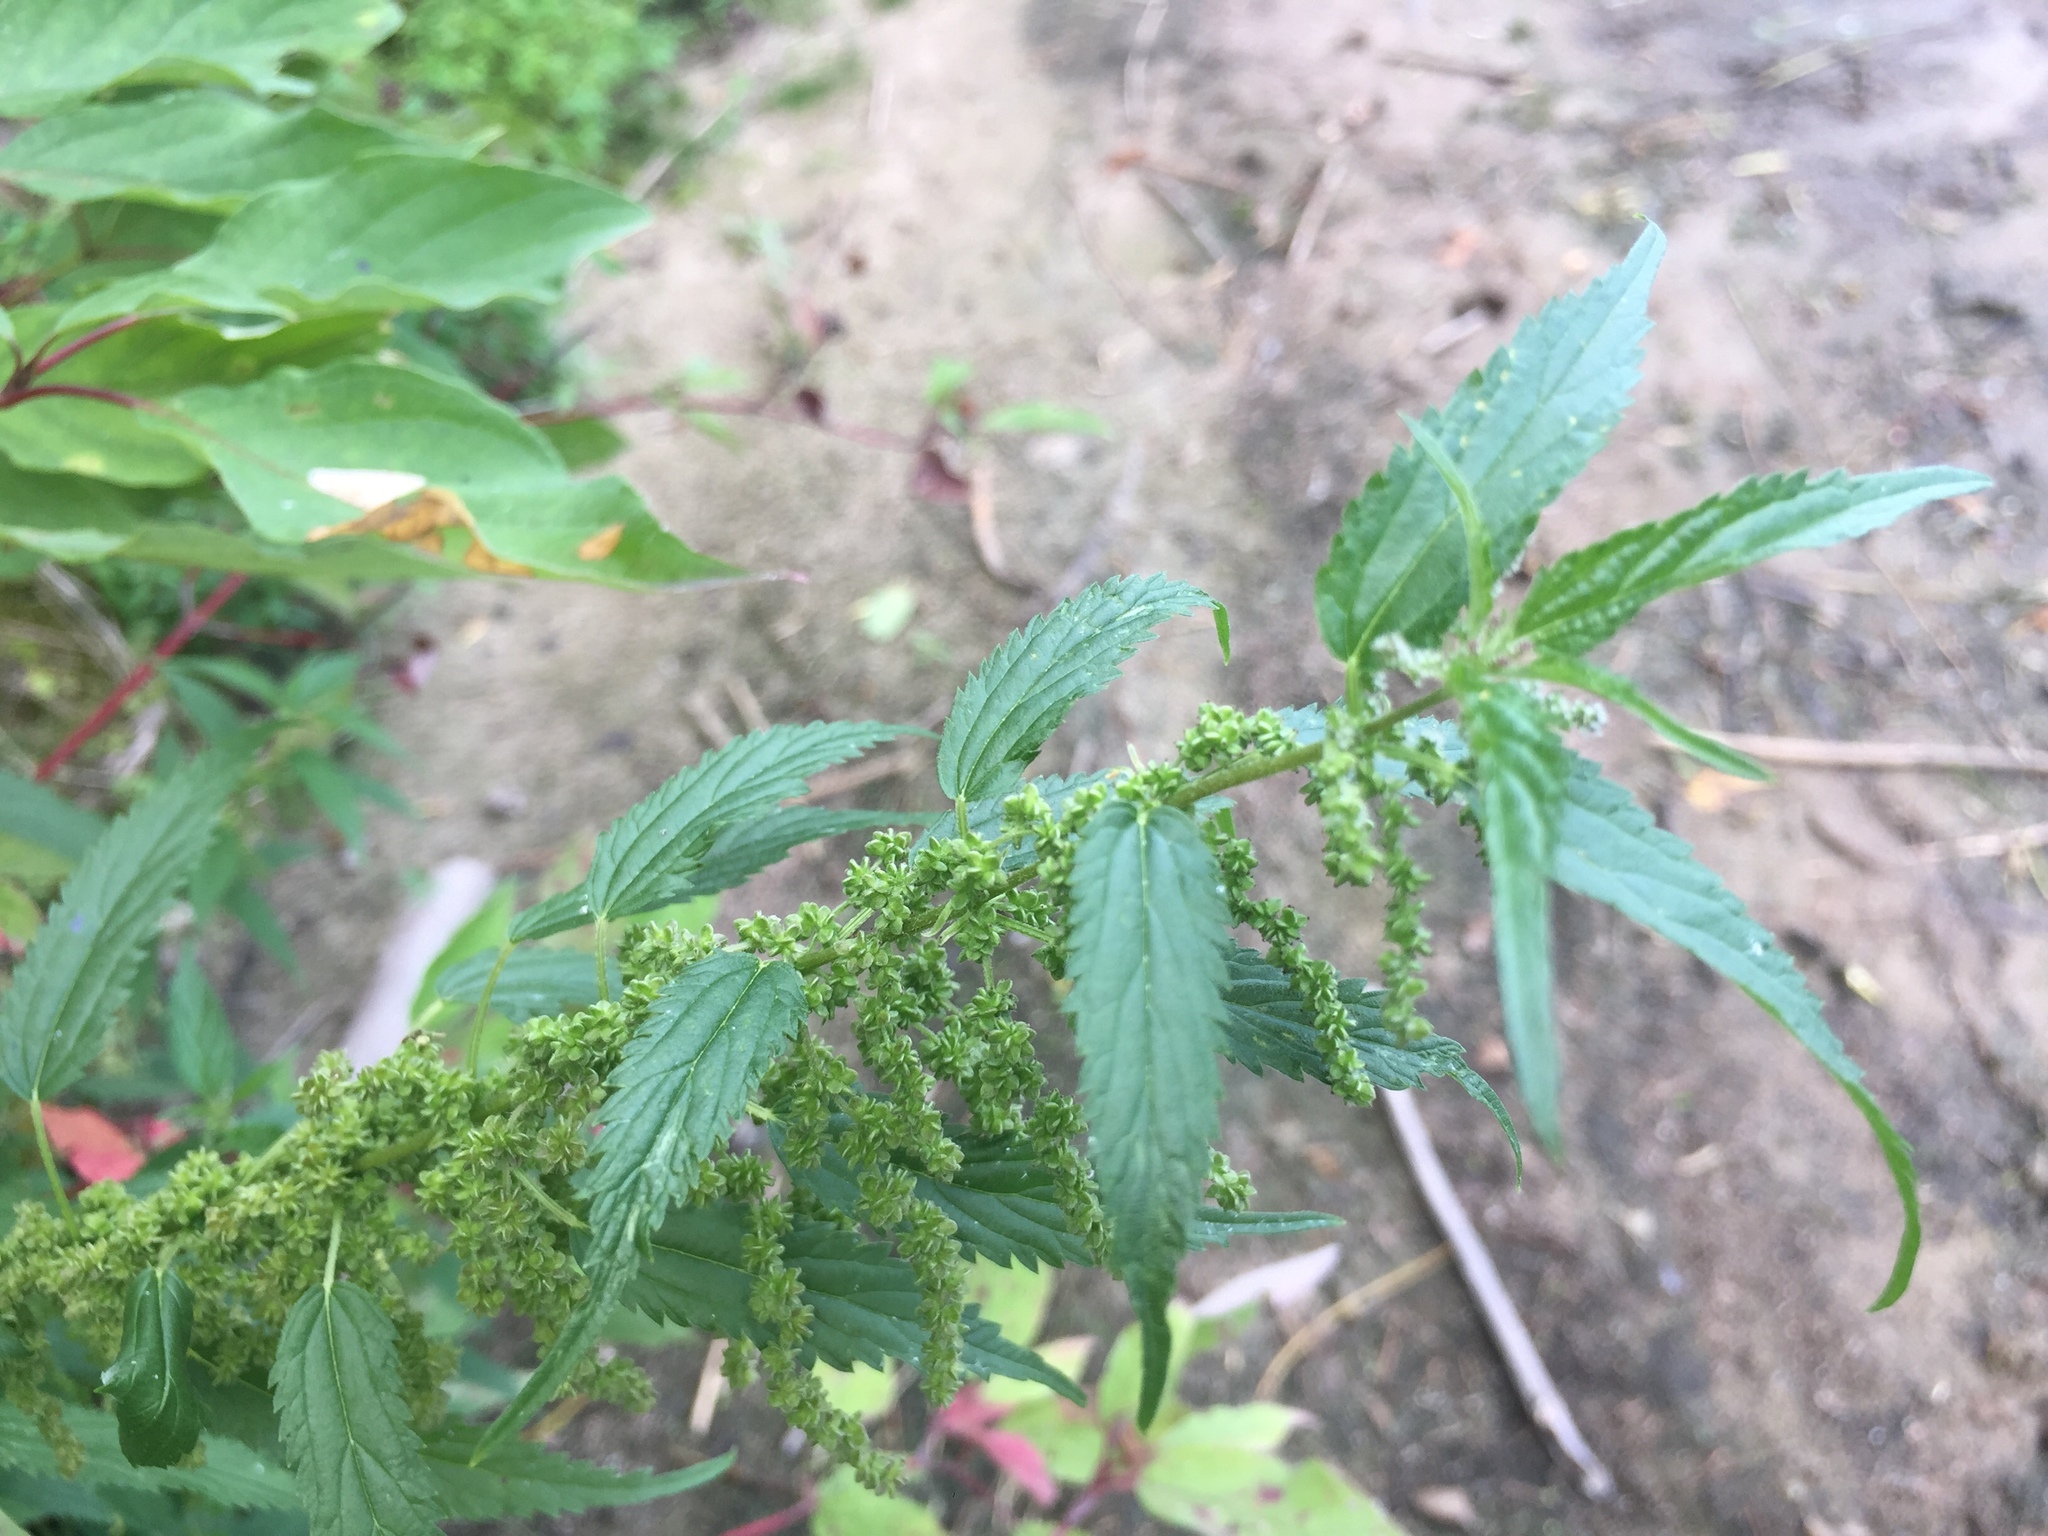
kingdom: Plantae
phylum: Tracheophyta
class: Magnoliopsida
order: Rosales
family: Urticaceae
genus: Urtica
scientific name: Urtica gracilis
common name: Slender stinging nettle
